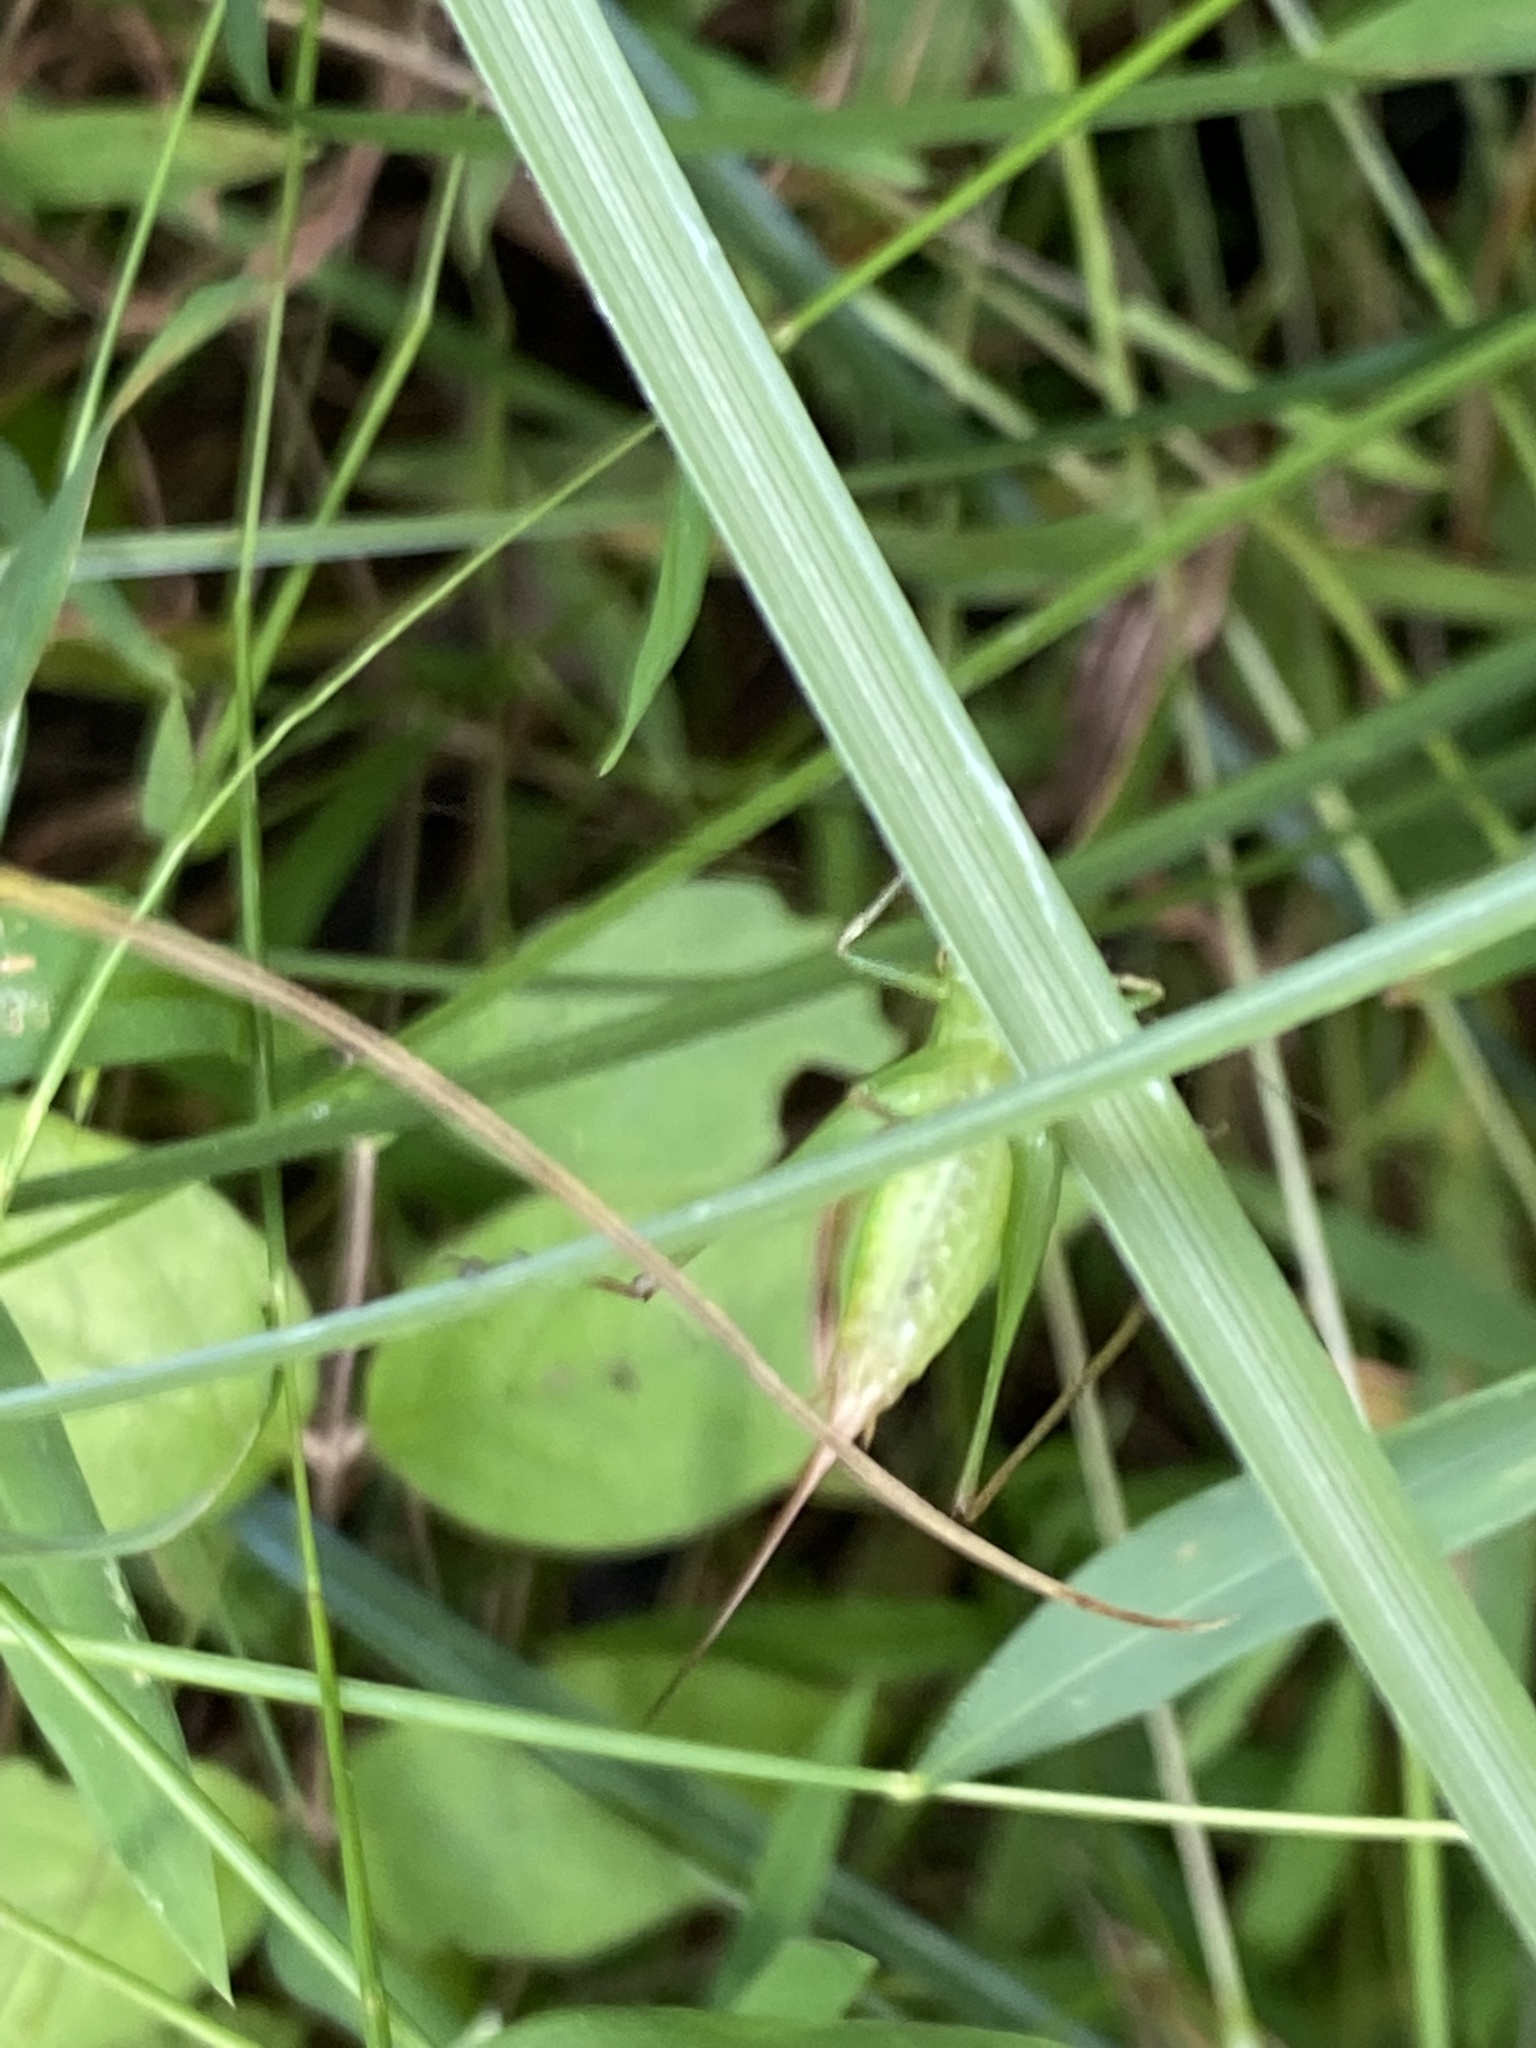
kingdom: Animalia
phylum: Arthropoda
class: Insecta
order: Orthoptera
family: Tettigoniidae
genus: Conocephalus
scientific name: Conocephalus brevipennis
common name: Short-winged meadow katydid
